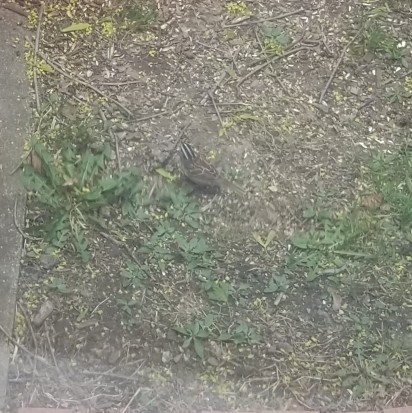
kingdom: Animalia
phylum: Chordata
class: Aves
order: Passeriformes
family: Passerellidae
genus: Zonotrichia
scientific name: Zonotrichia albicollis
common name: White-throated sparrow
